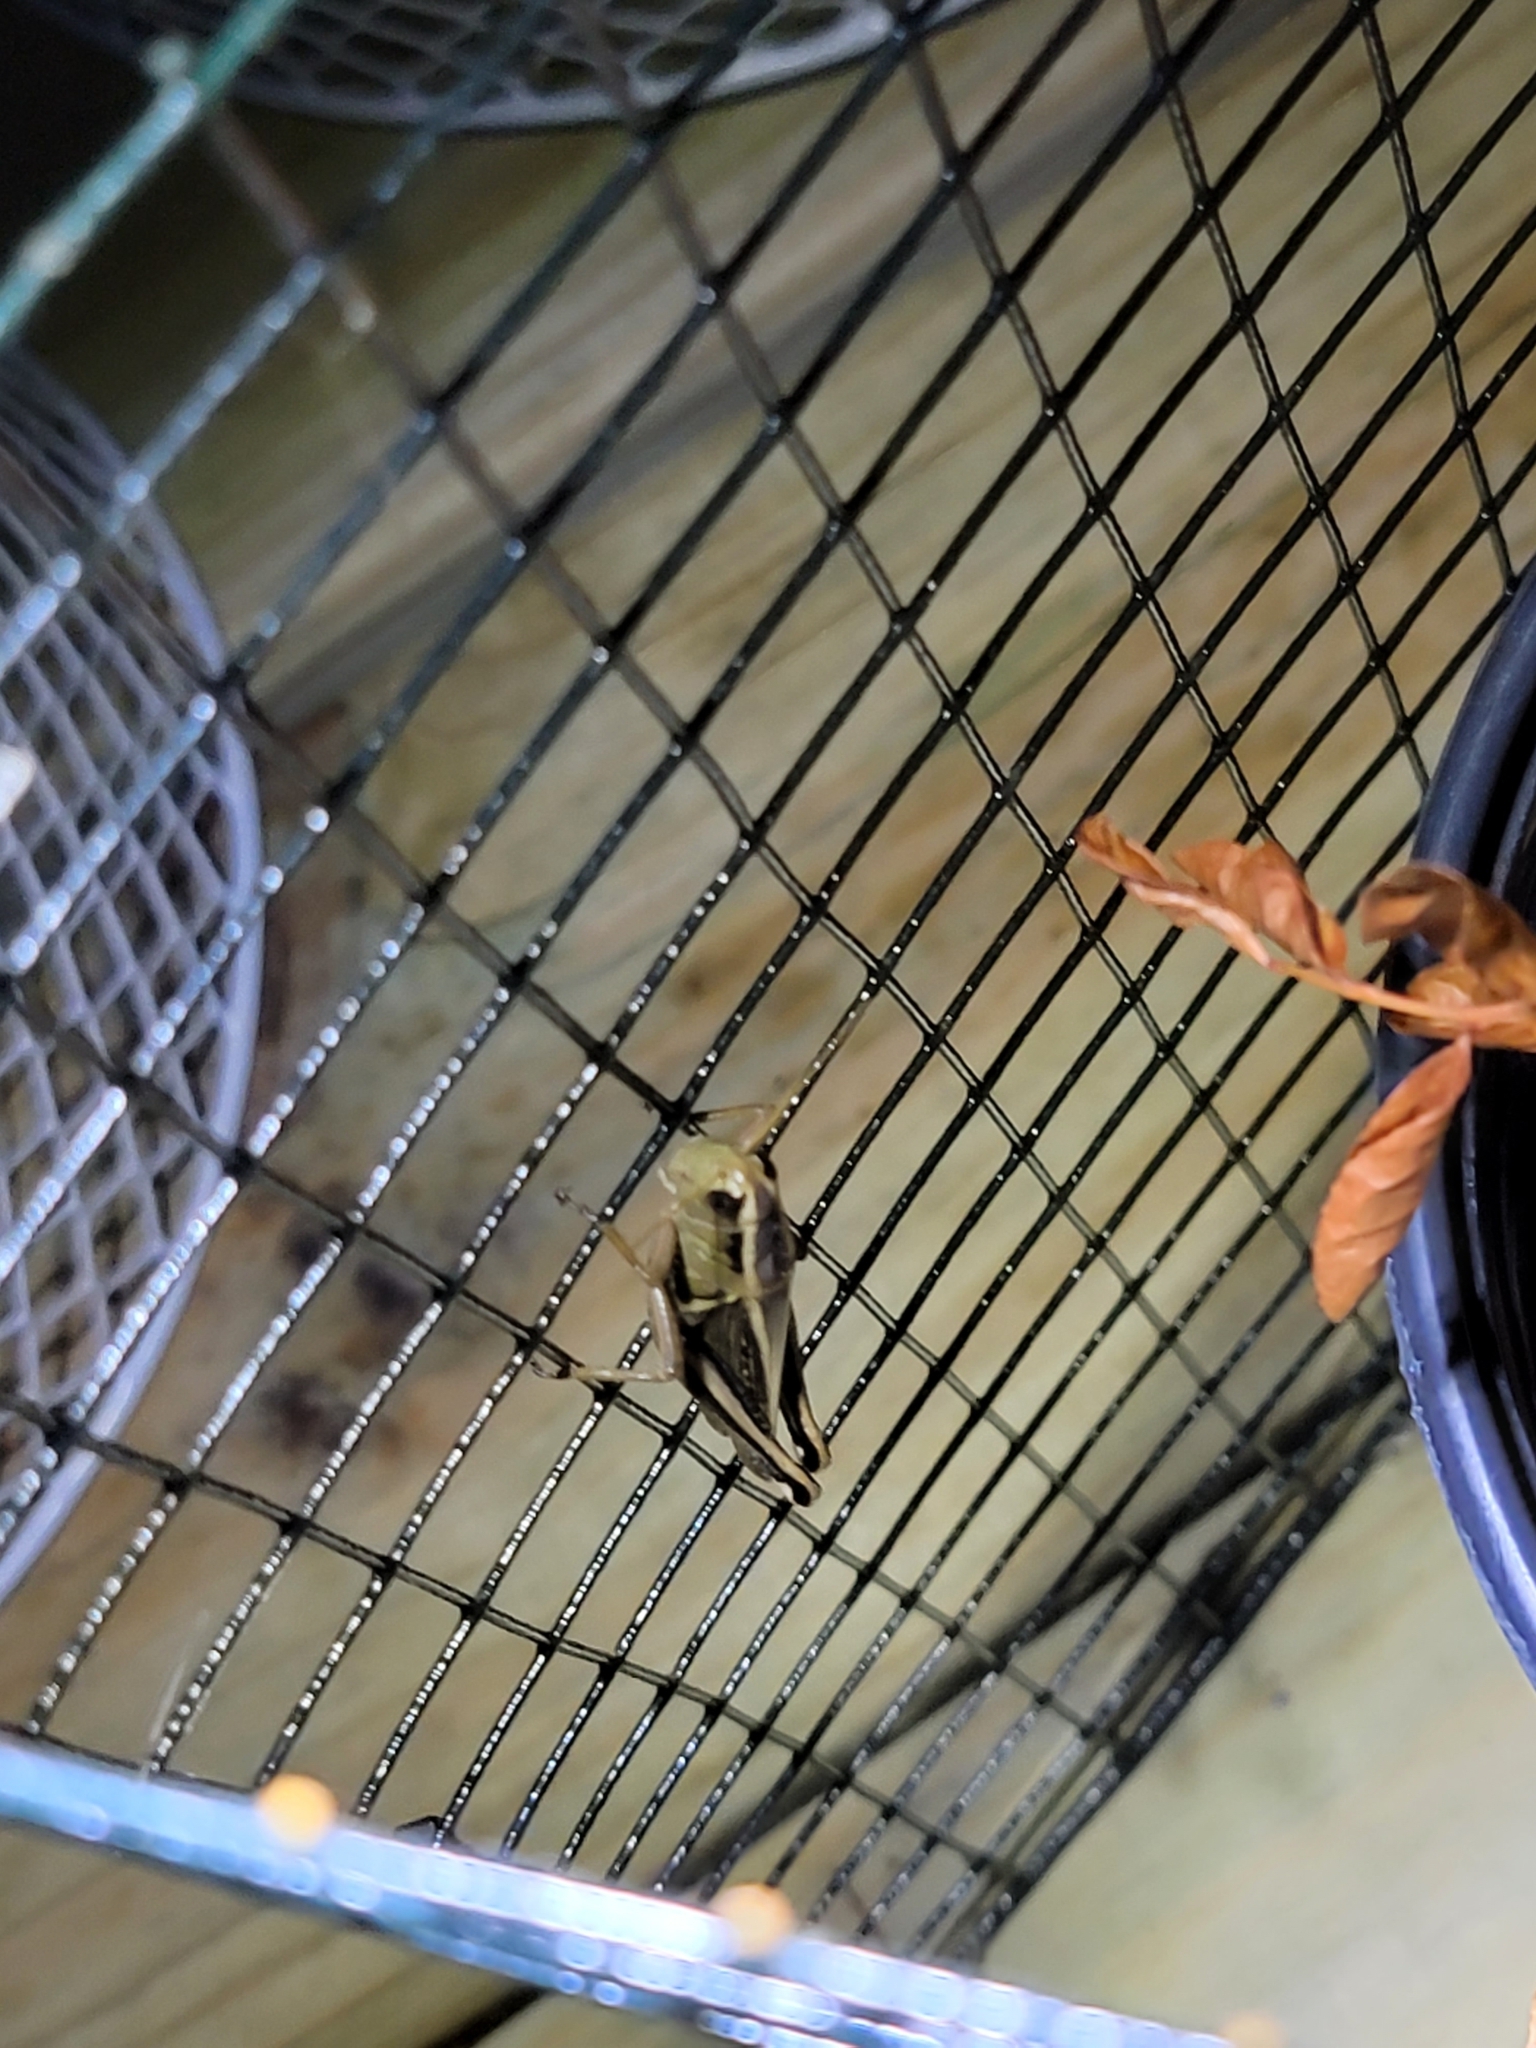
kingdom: Animalia
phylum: Arthropoda
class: Insecta
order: Orthoptera
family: Acrididae
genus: Melanoplus
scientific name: Melanoplus bivittatus
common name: Two-striped grasshopper
